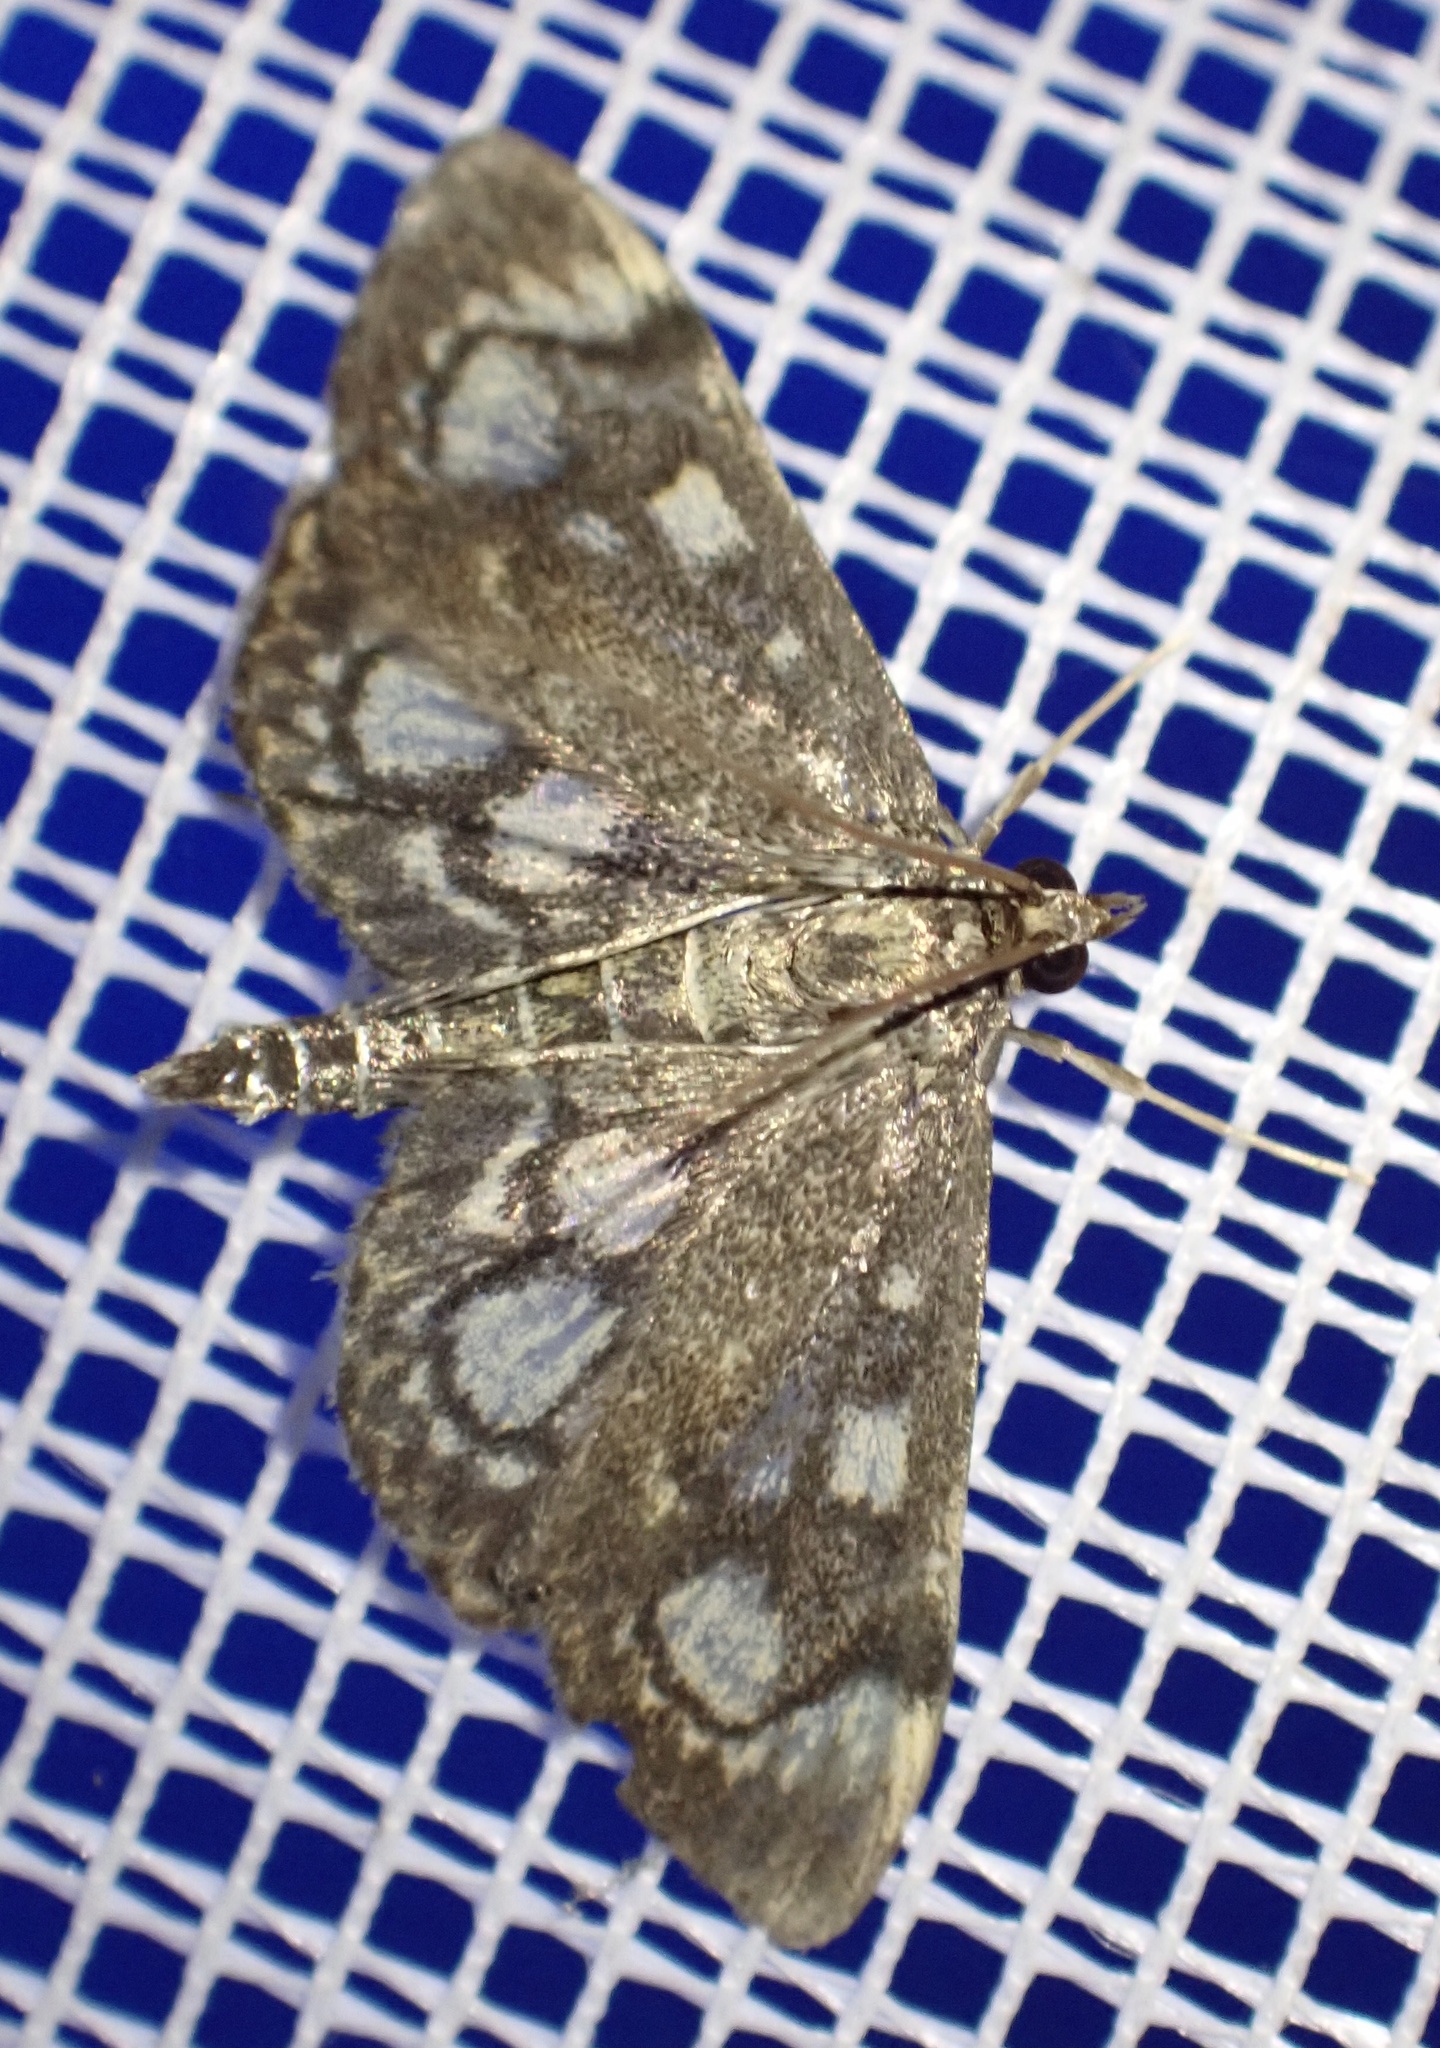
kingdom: Animalia
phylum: Arthropoda
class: Insecta
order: Lepidoptera
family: Crambidae
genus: Anania
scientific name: Anania coronata
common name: Elder pearl
